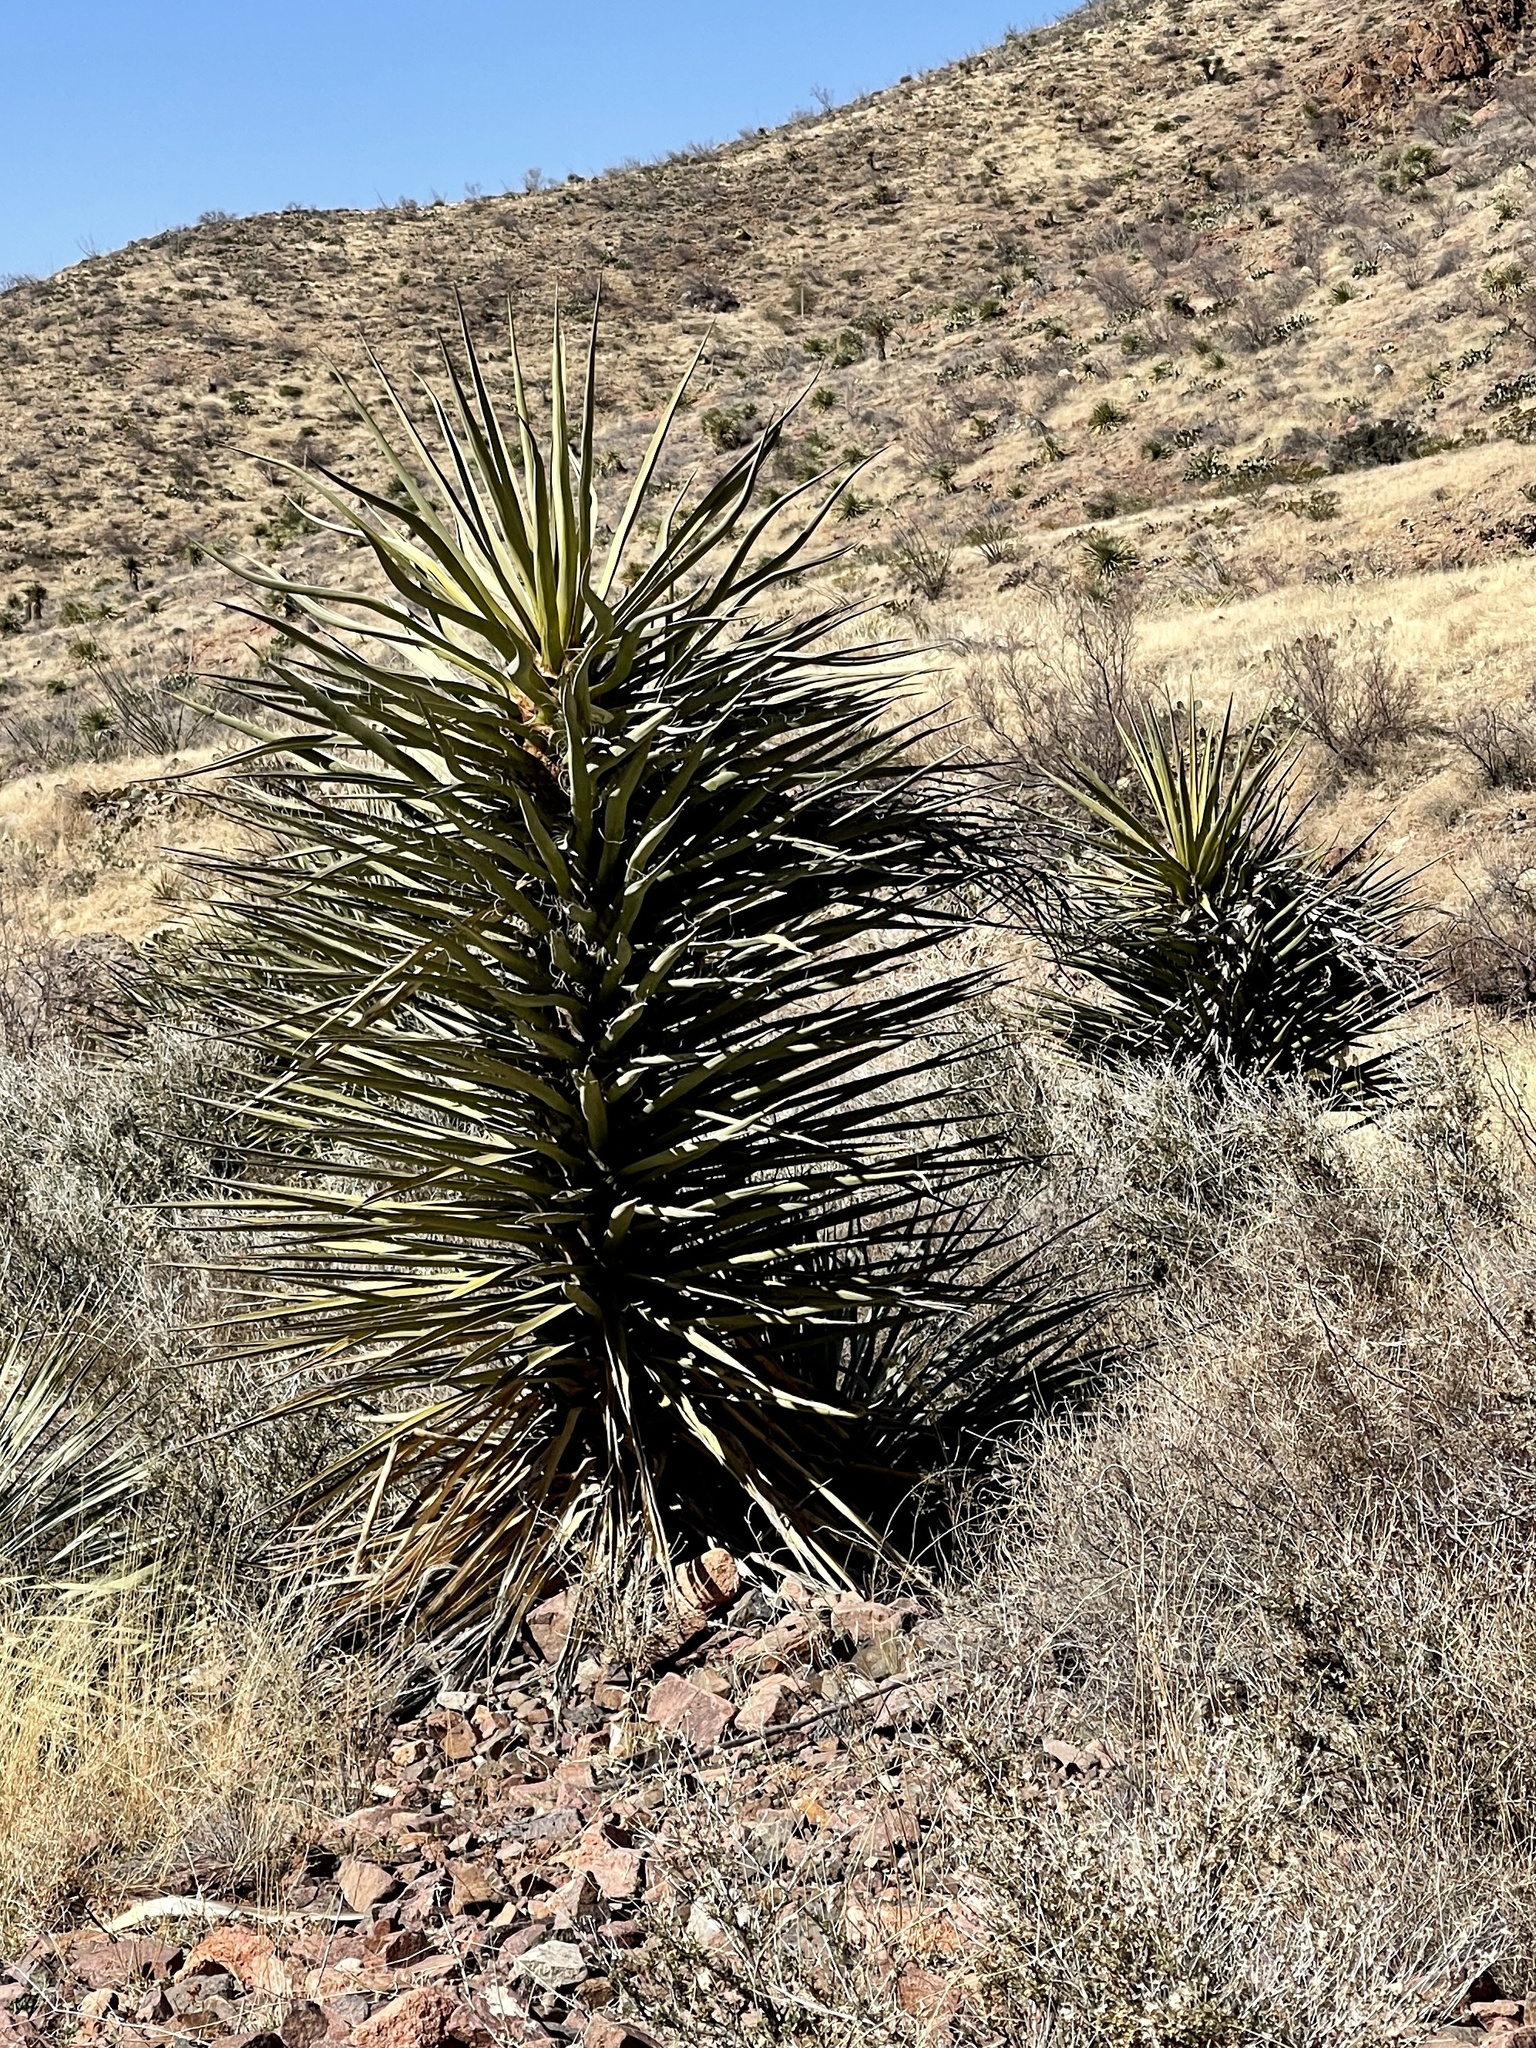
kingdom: Plantae
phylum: Tracheophyta
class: Liliopsida
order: Asparagales
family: Asparagaceae
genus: Yucca
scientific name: Yucca treculiana
